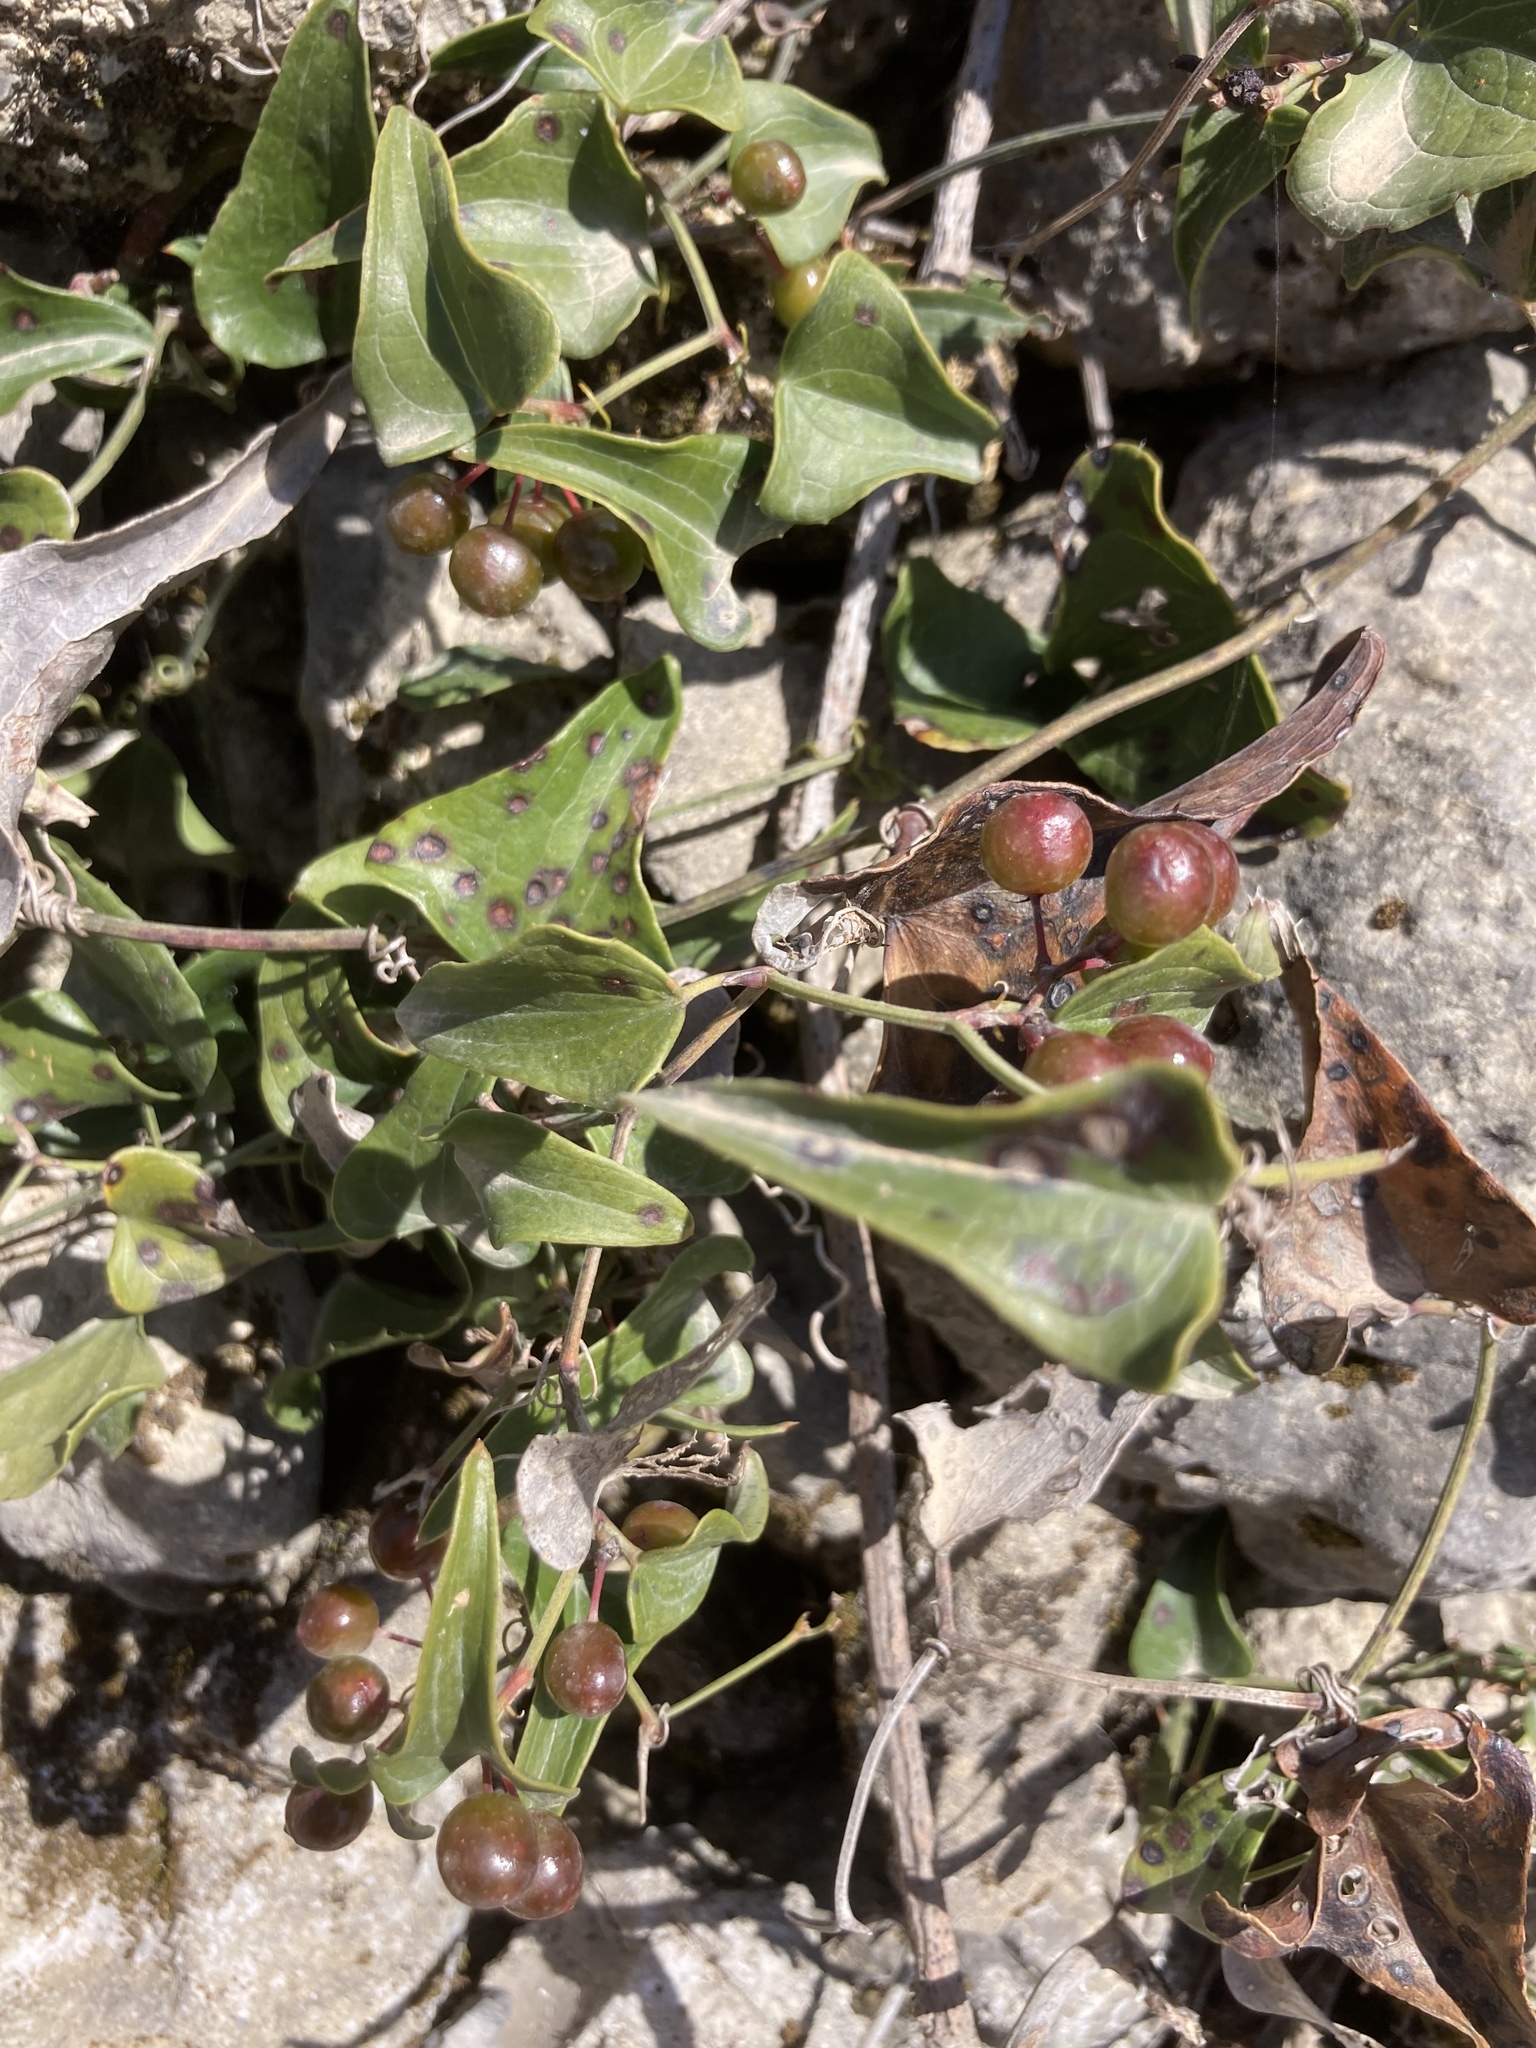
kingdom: Plantae
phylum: Tracheophyta
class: Liliopsida
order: Liliales
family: Smilacaceae
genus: Smilax
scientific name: Smilax aspera
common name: Common smilax
